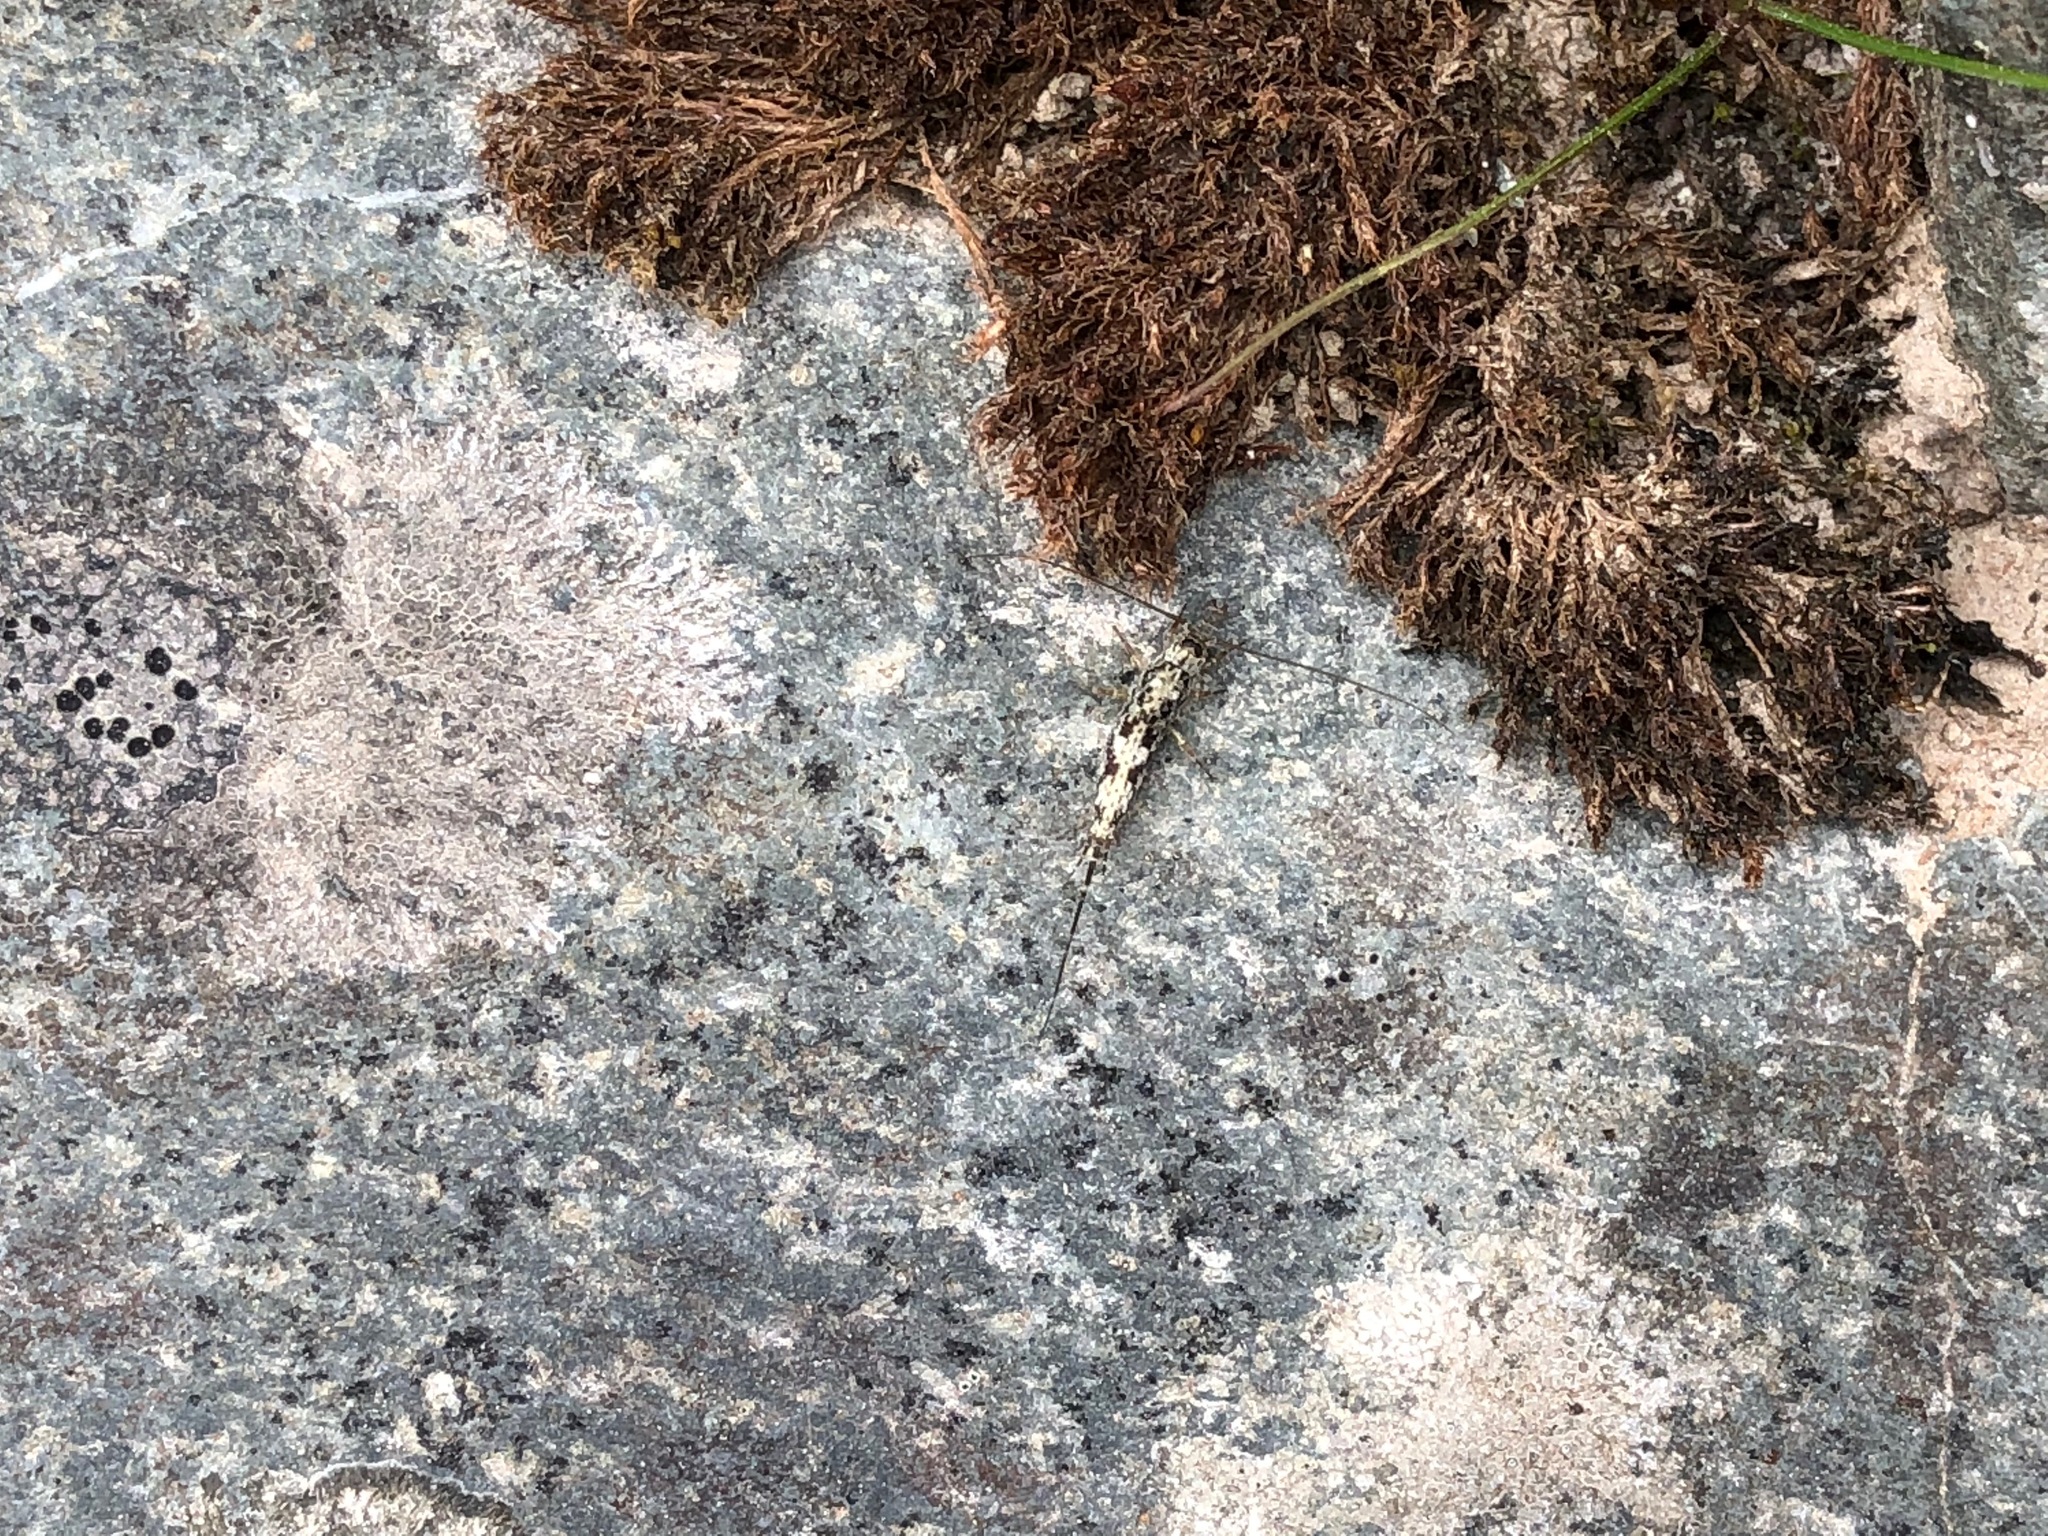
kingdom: Animalia
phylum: Arthropoda
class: Insecta
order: Archaeognatha
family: Machilidae
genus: Petridiobius
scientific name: Petridiobius arcticus
